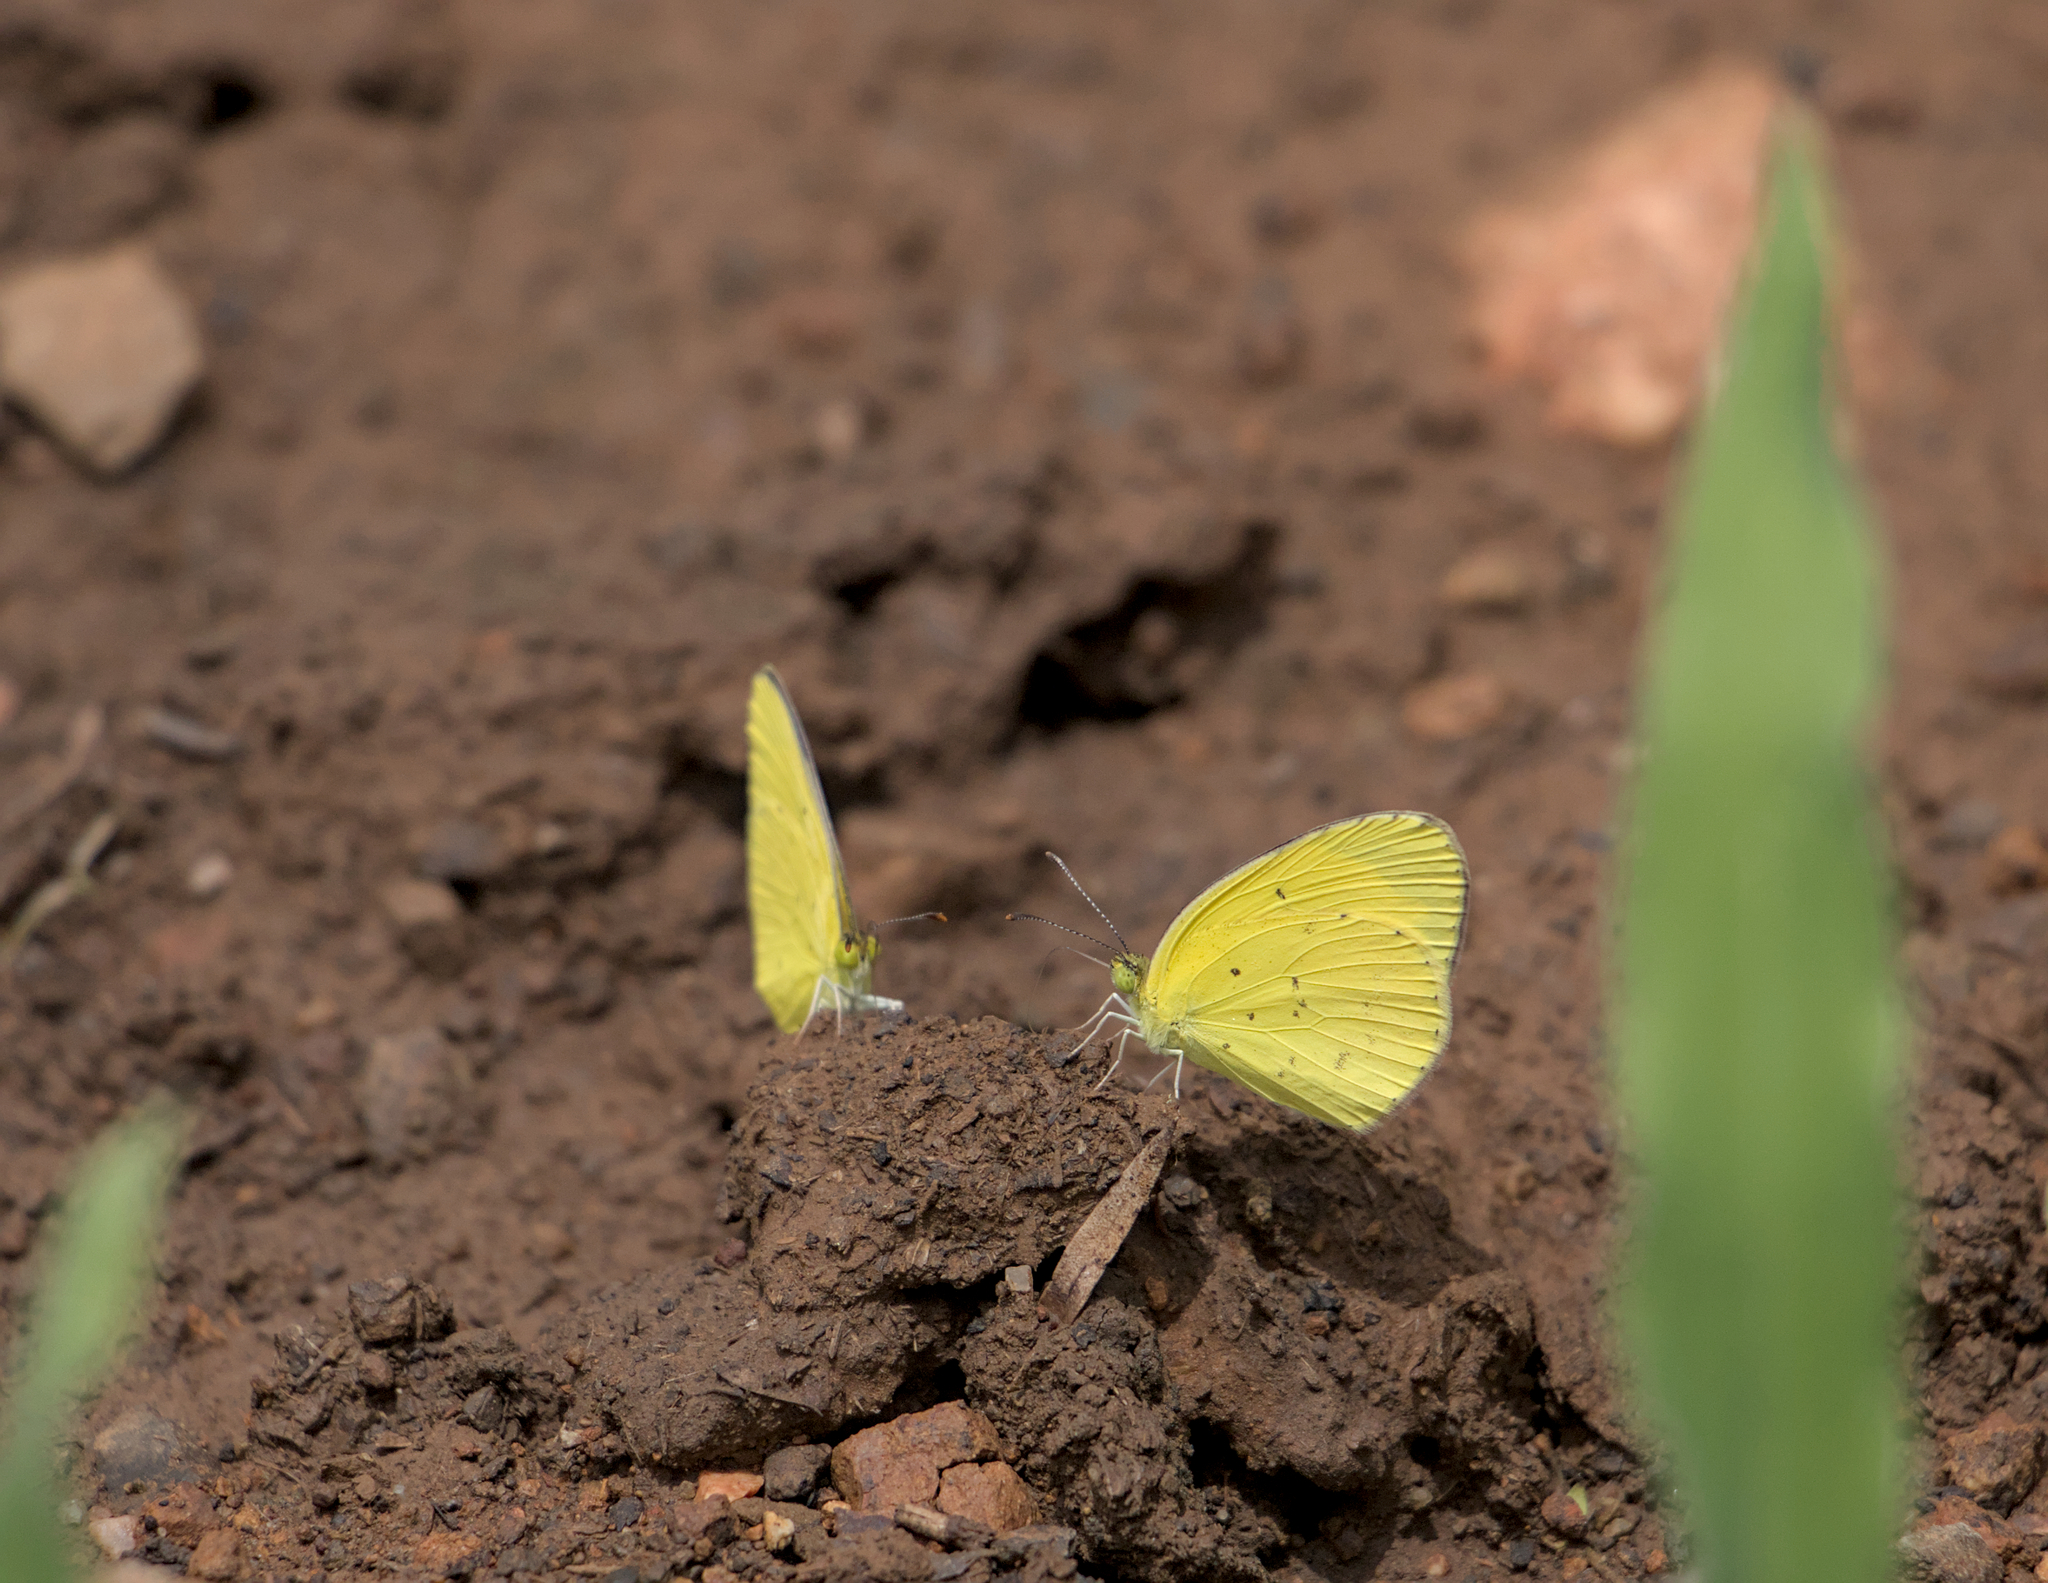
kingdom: Animalia
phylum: Arthropoda
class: Insecta
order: Lepidoptera
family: Pieridae
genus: Eurema
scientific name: Eurema smilax
